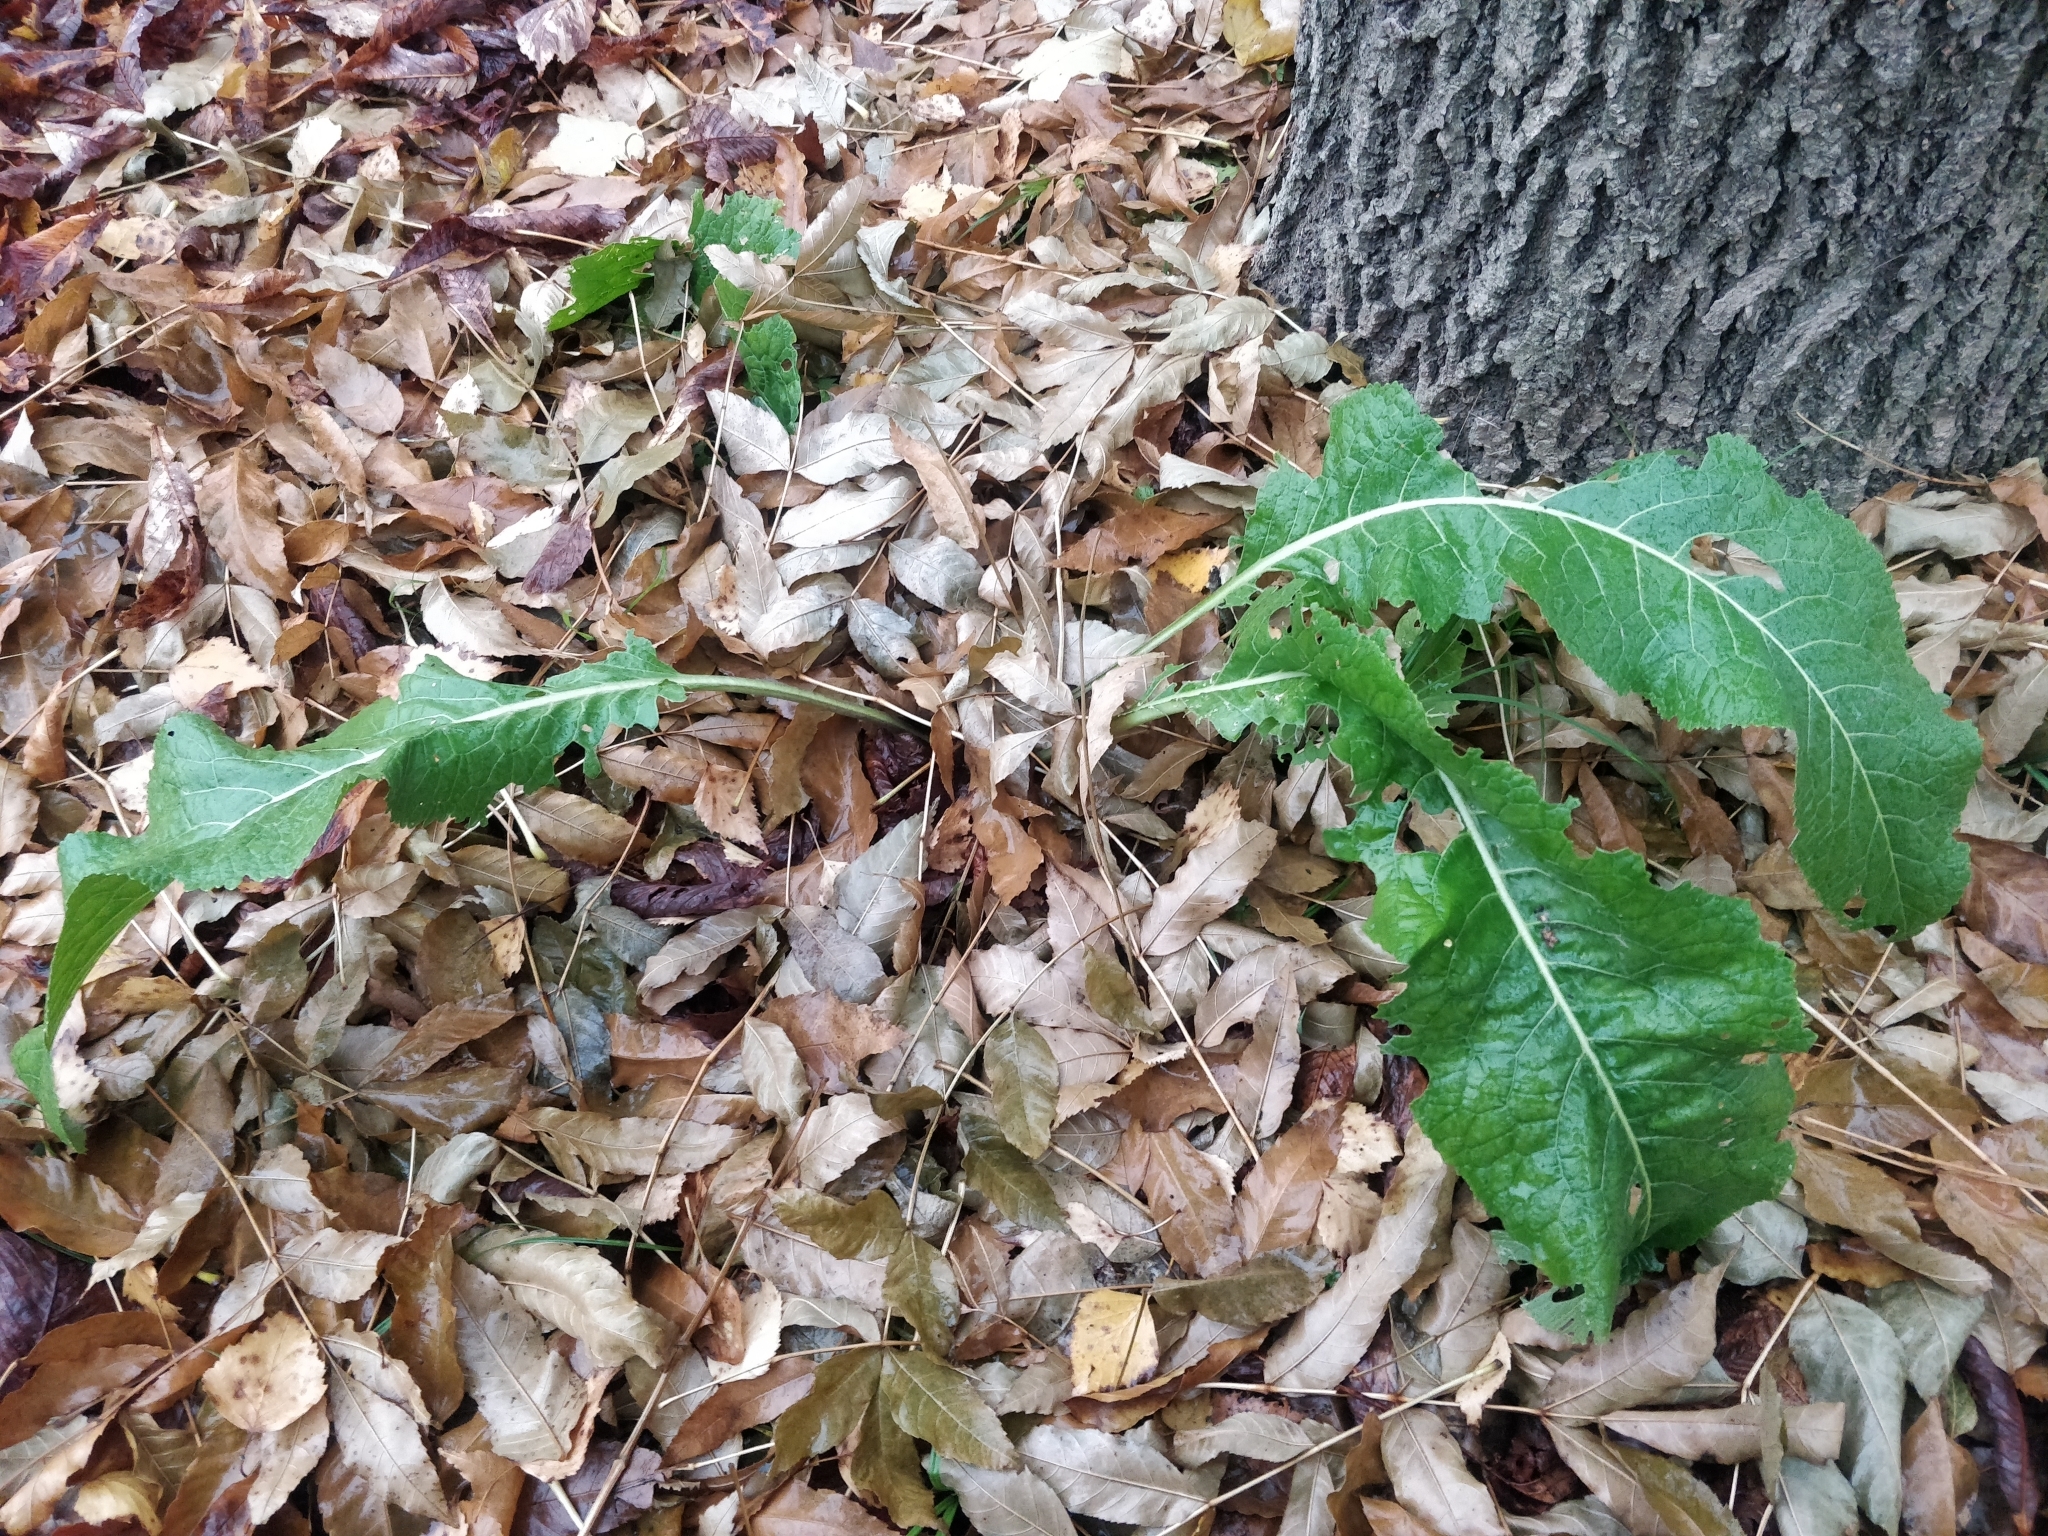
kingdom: Plantae
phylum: Tracheophyta
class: Magnoliopsida
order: Brassicales
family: Brassicaceae
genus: Armoracia
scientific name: Armoracia rusticana
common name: Horseradish
